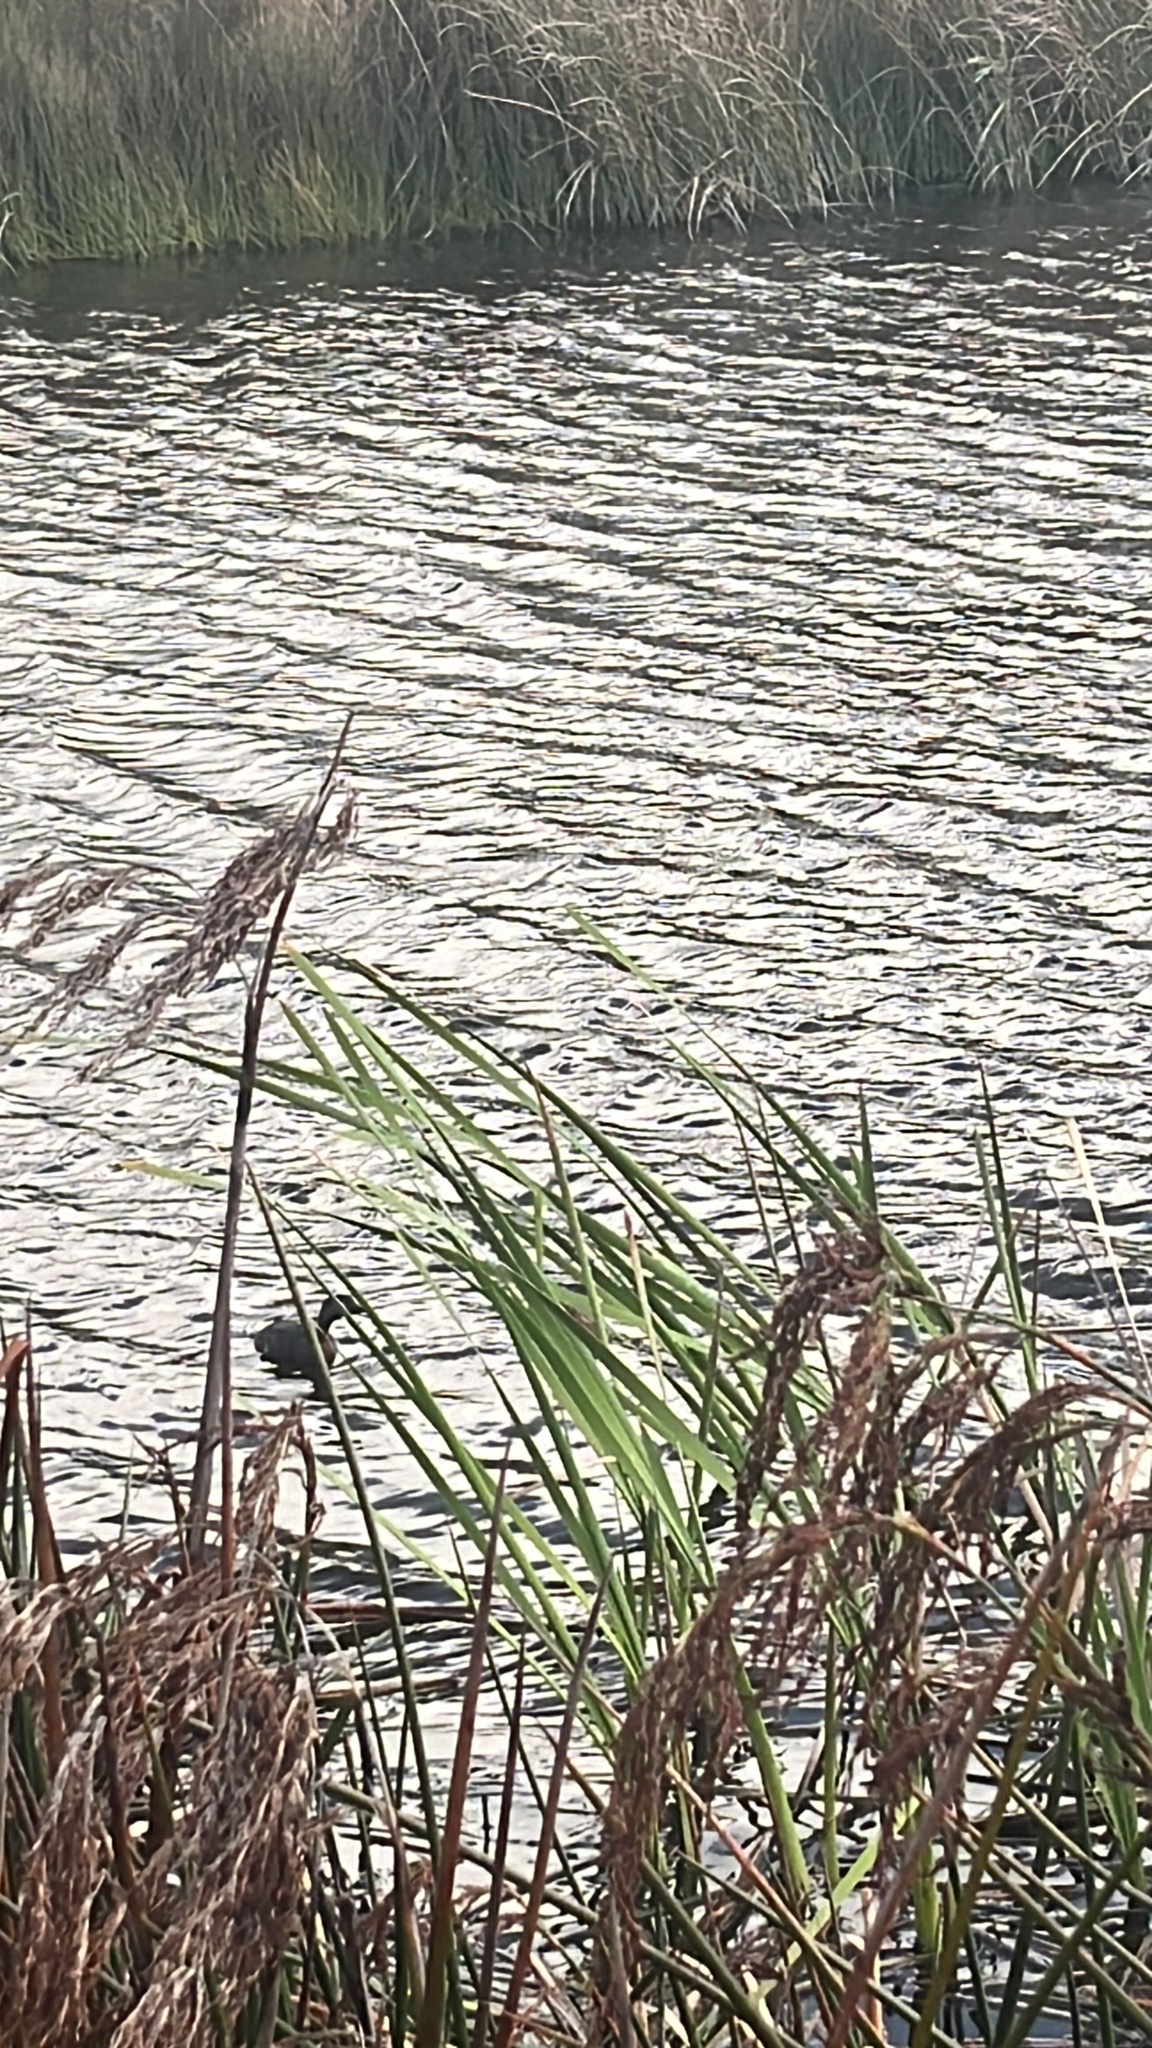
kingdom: Animalia
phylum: Chordata
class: Aves
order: Podicipediformes
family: Podicipedidae
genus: Poliocephalus
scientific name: Poliocephalus rufopectus
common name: New zealand grebe
